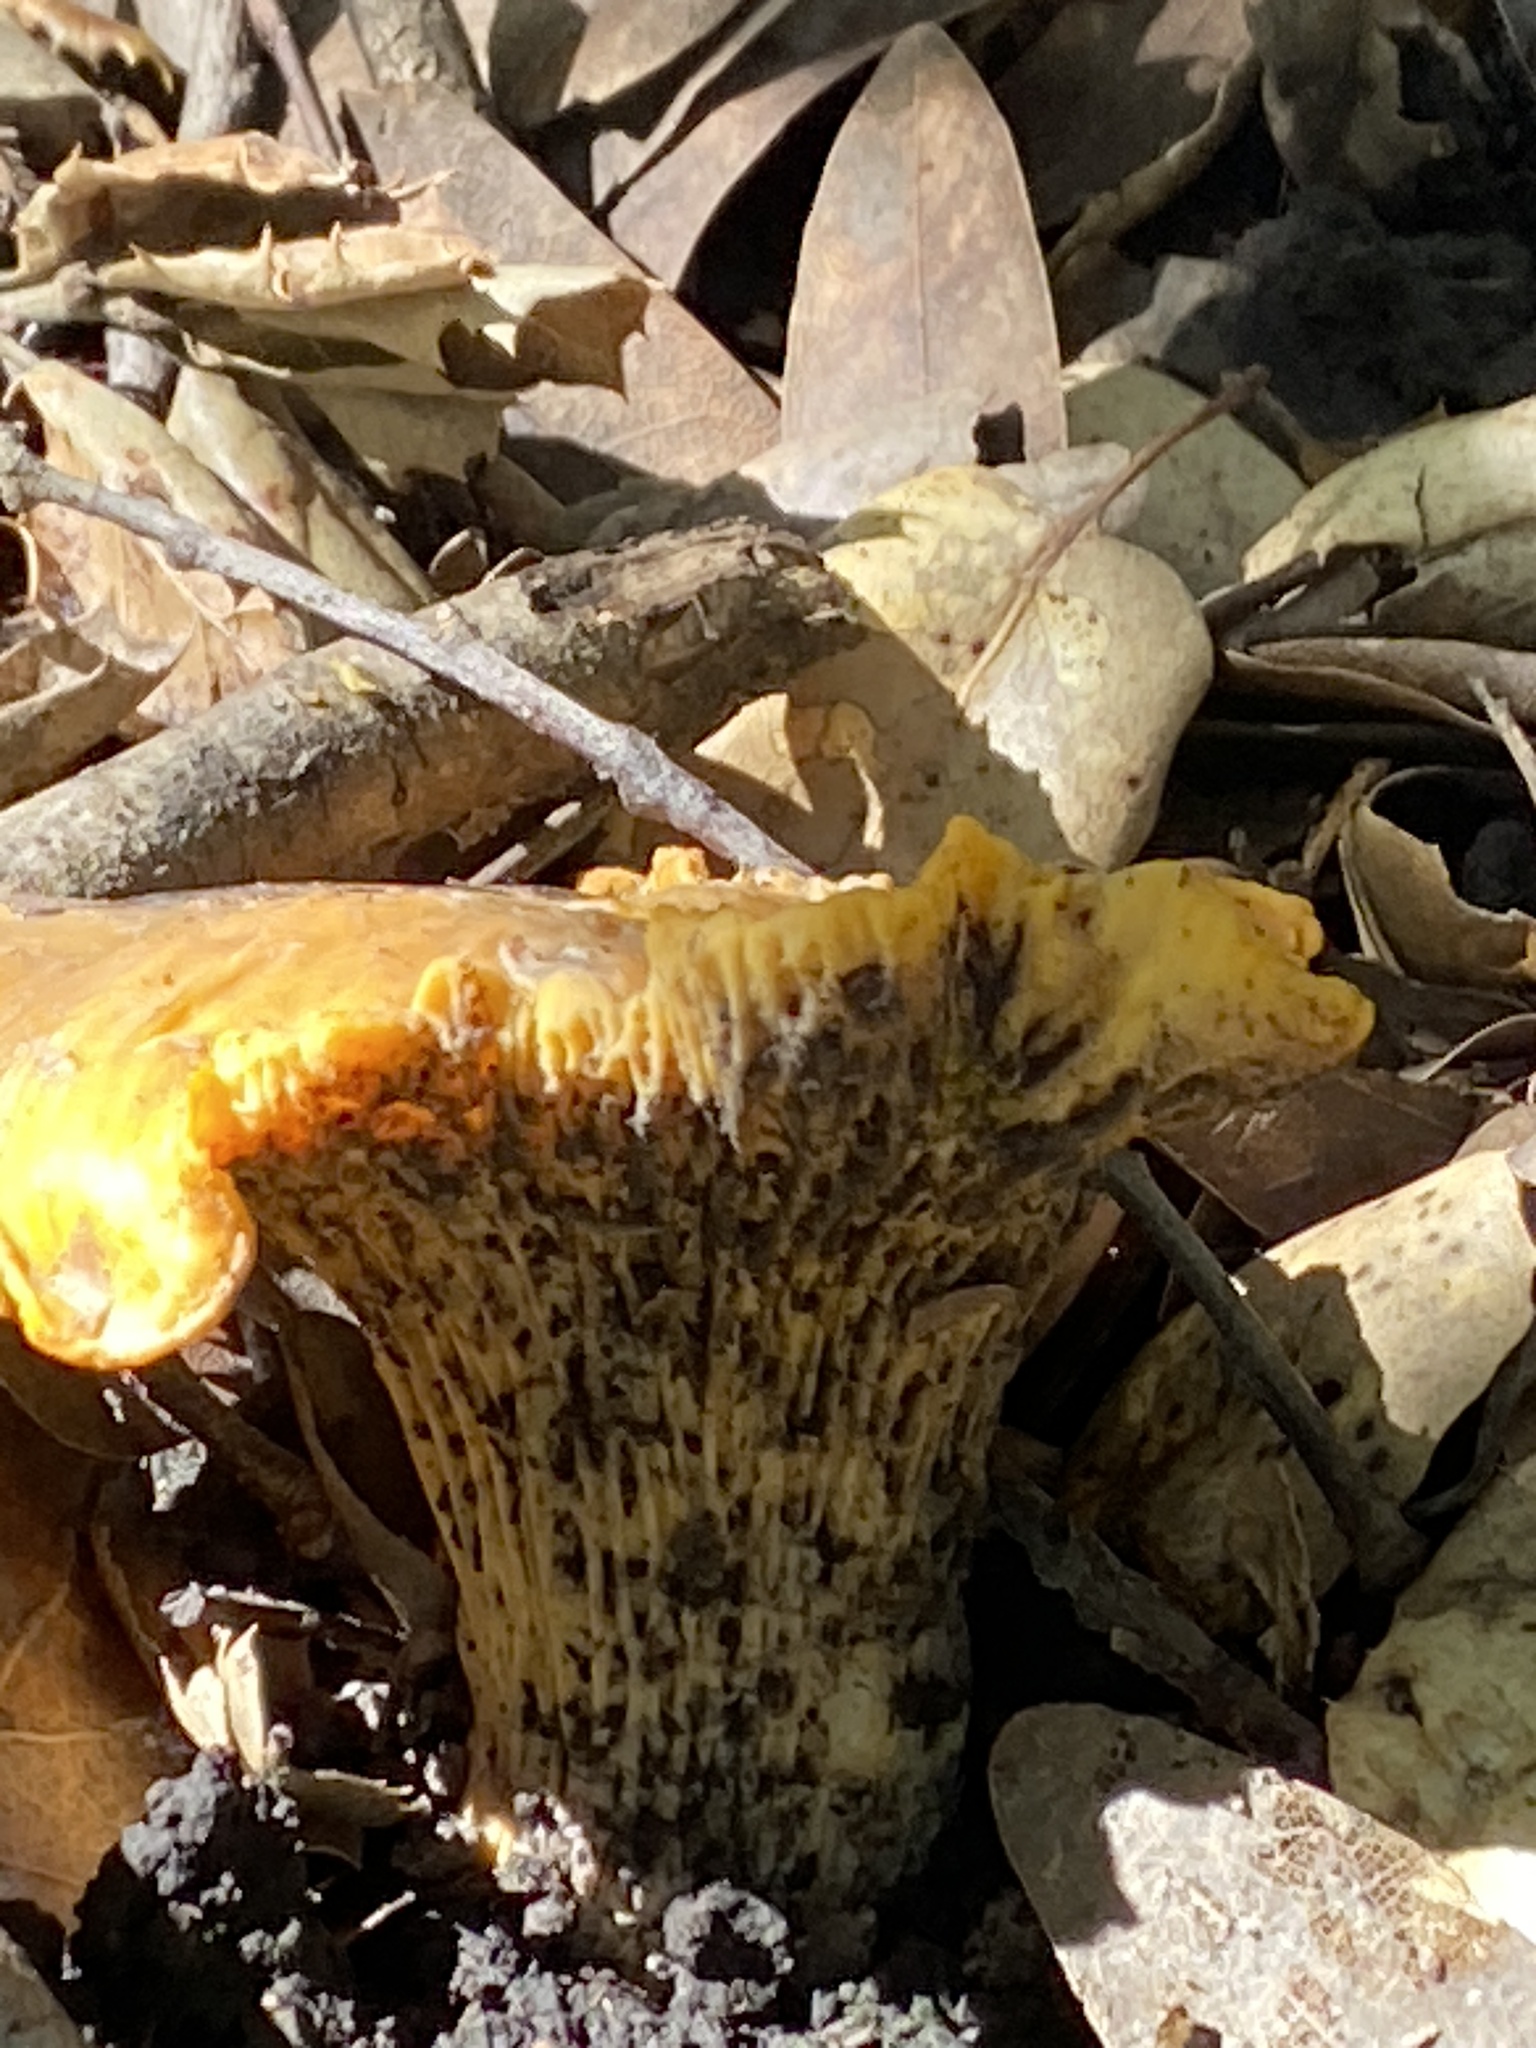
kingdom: Fungi
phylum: Basidiomycota
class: Agaricomycetes
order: Cantharellales
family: Hydnaceae
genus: Cantharellus
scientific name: Cantharellus californicus
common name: California golden chanterelle
